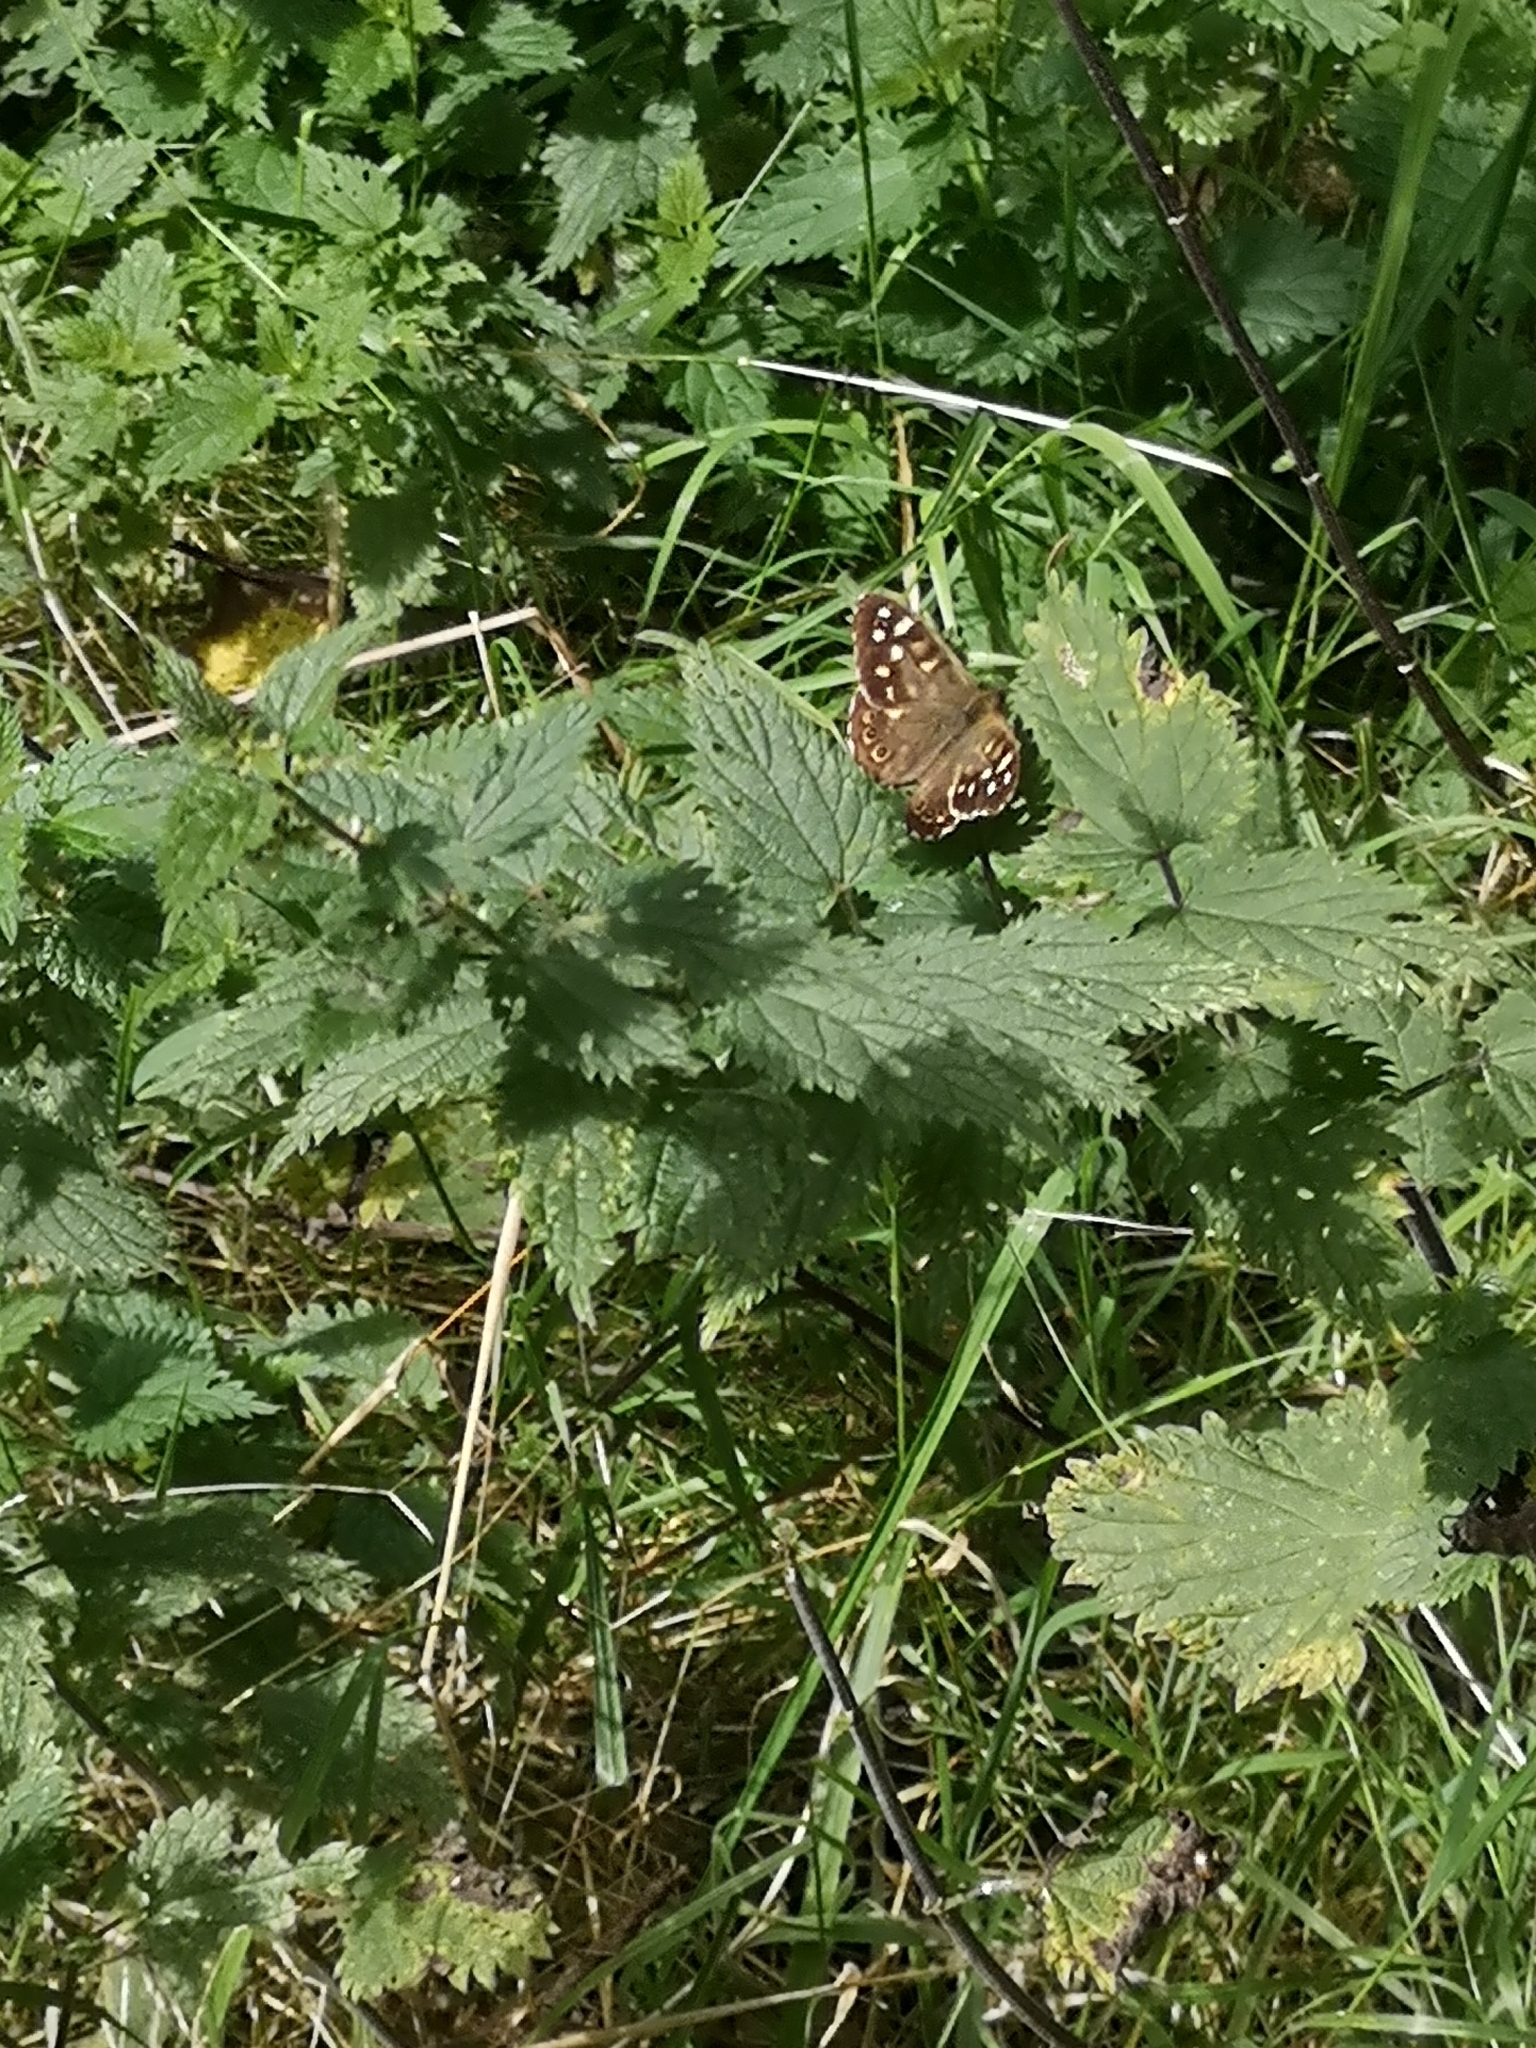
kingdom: Animalia
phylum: Arthropoda
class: Insecta
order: Lepidoptera
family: Nymphalidae
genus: Pararge
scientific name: Pararge aegeria
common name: Speckled wood
